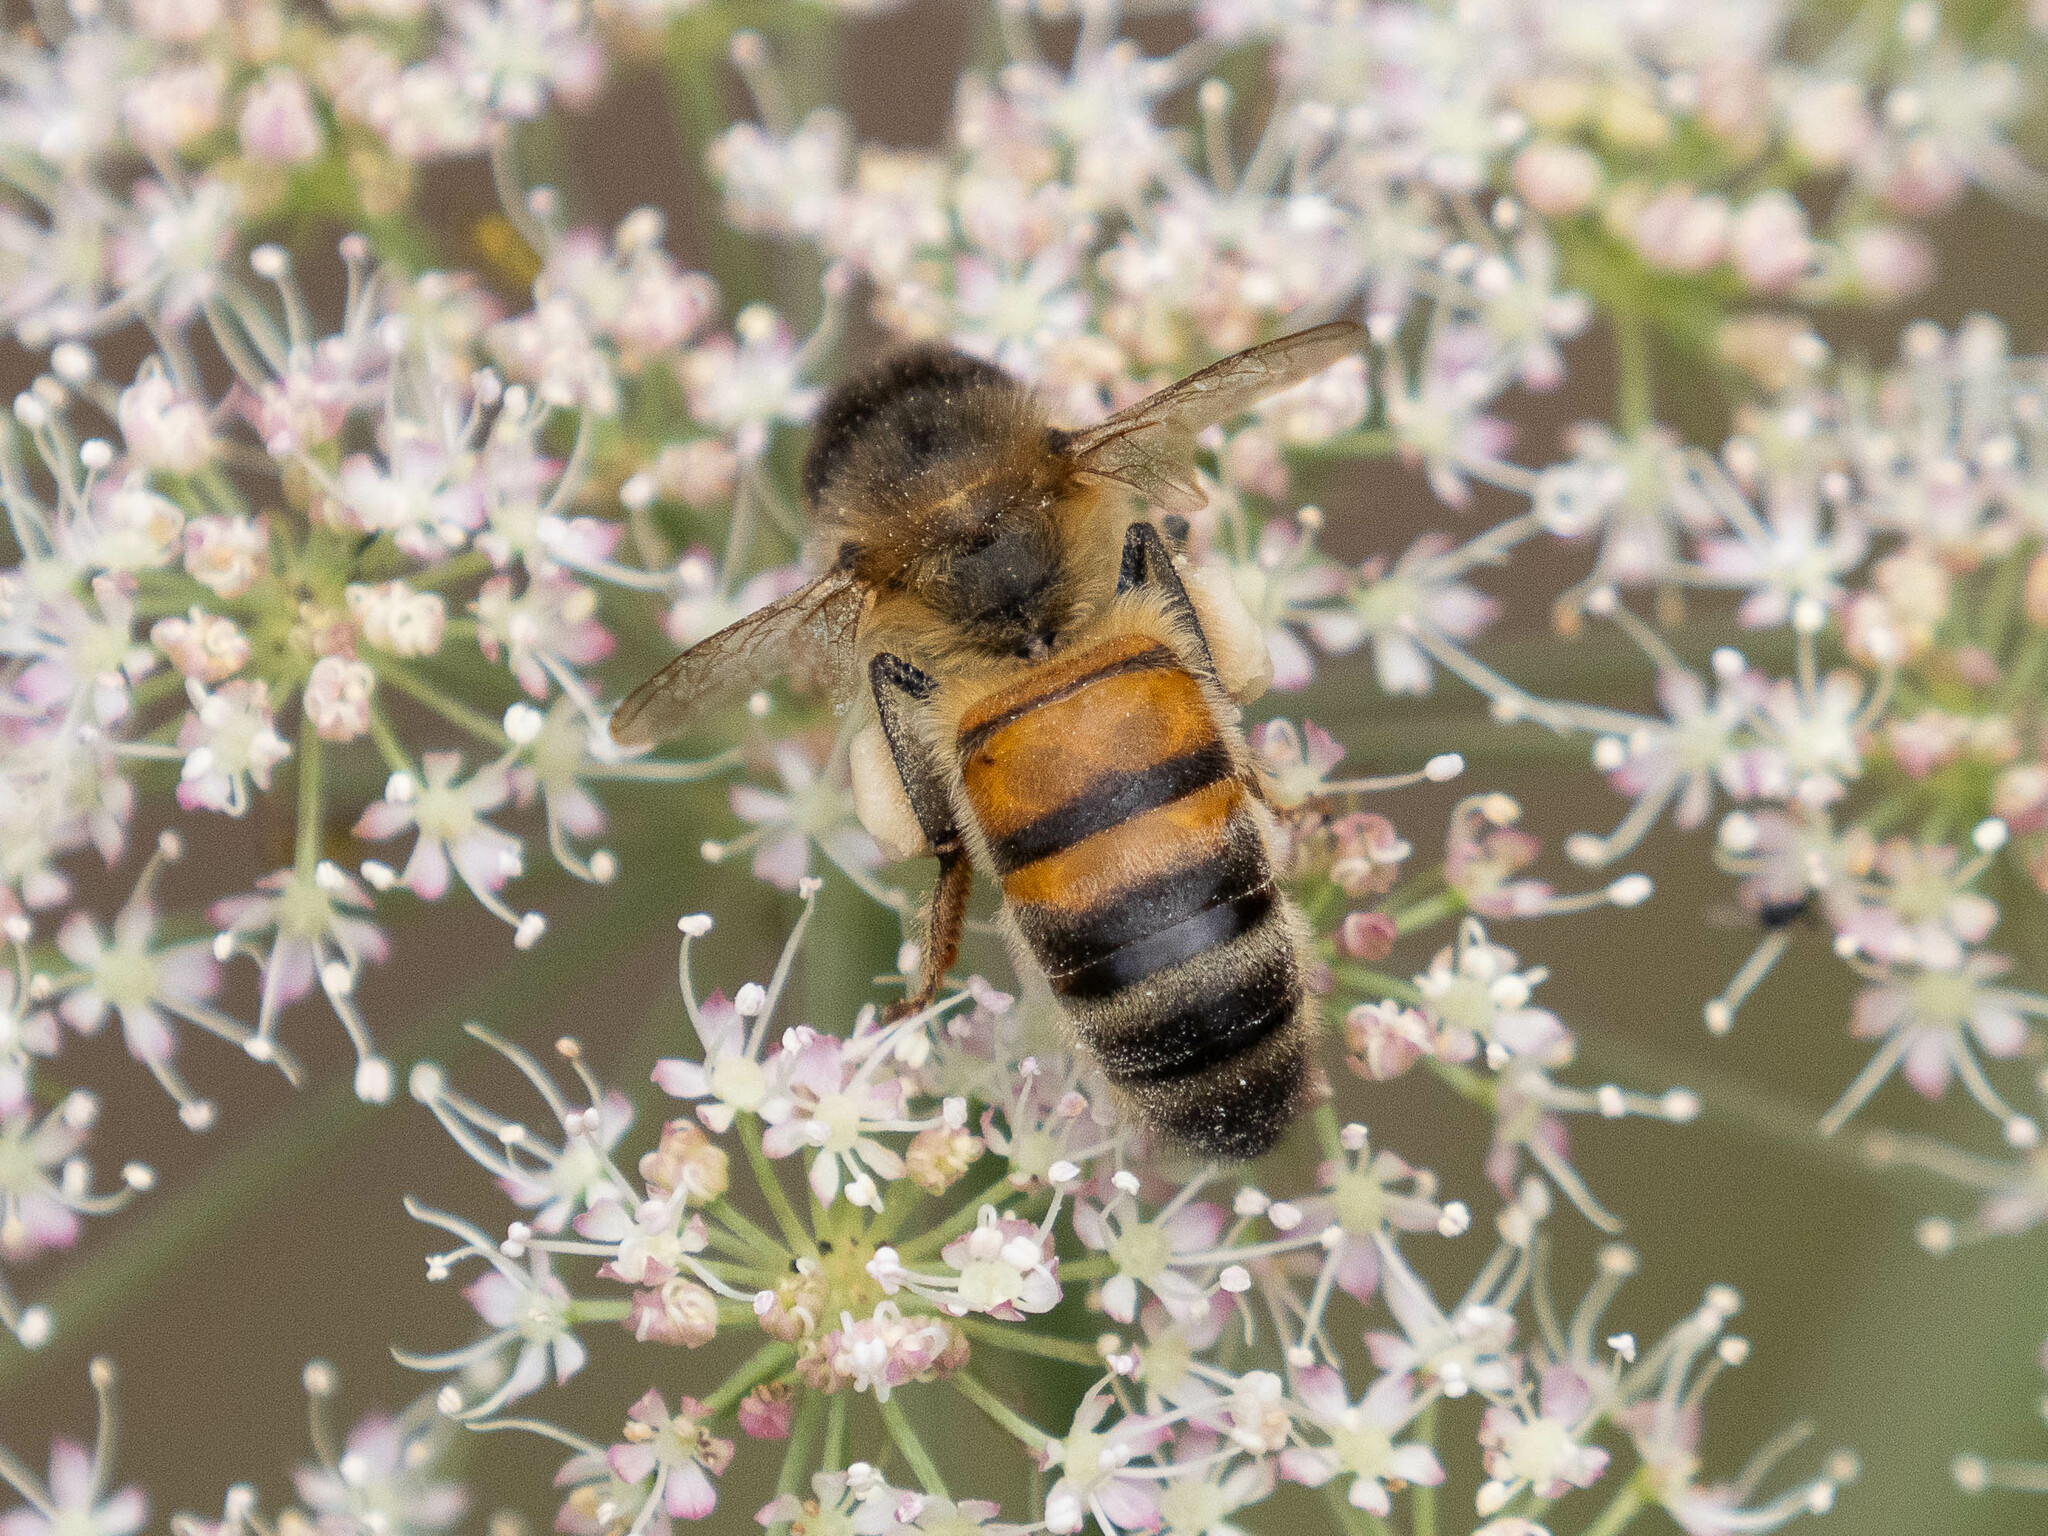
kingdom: Animalia
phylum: Arthropoda
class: Insecta
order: Hymenoptera
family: Apidae
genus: Apis
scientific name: Apis mellifera
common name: Honey bee
